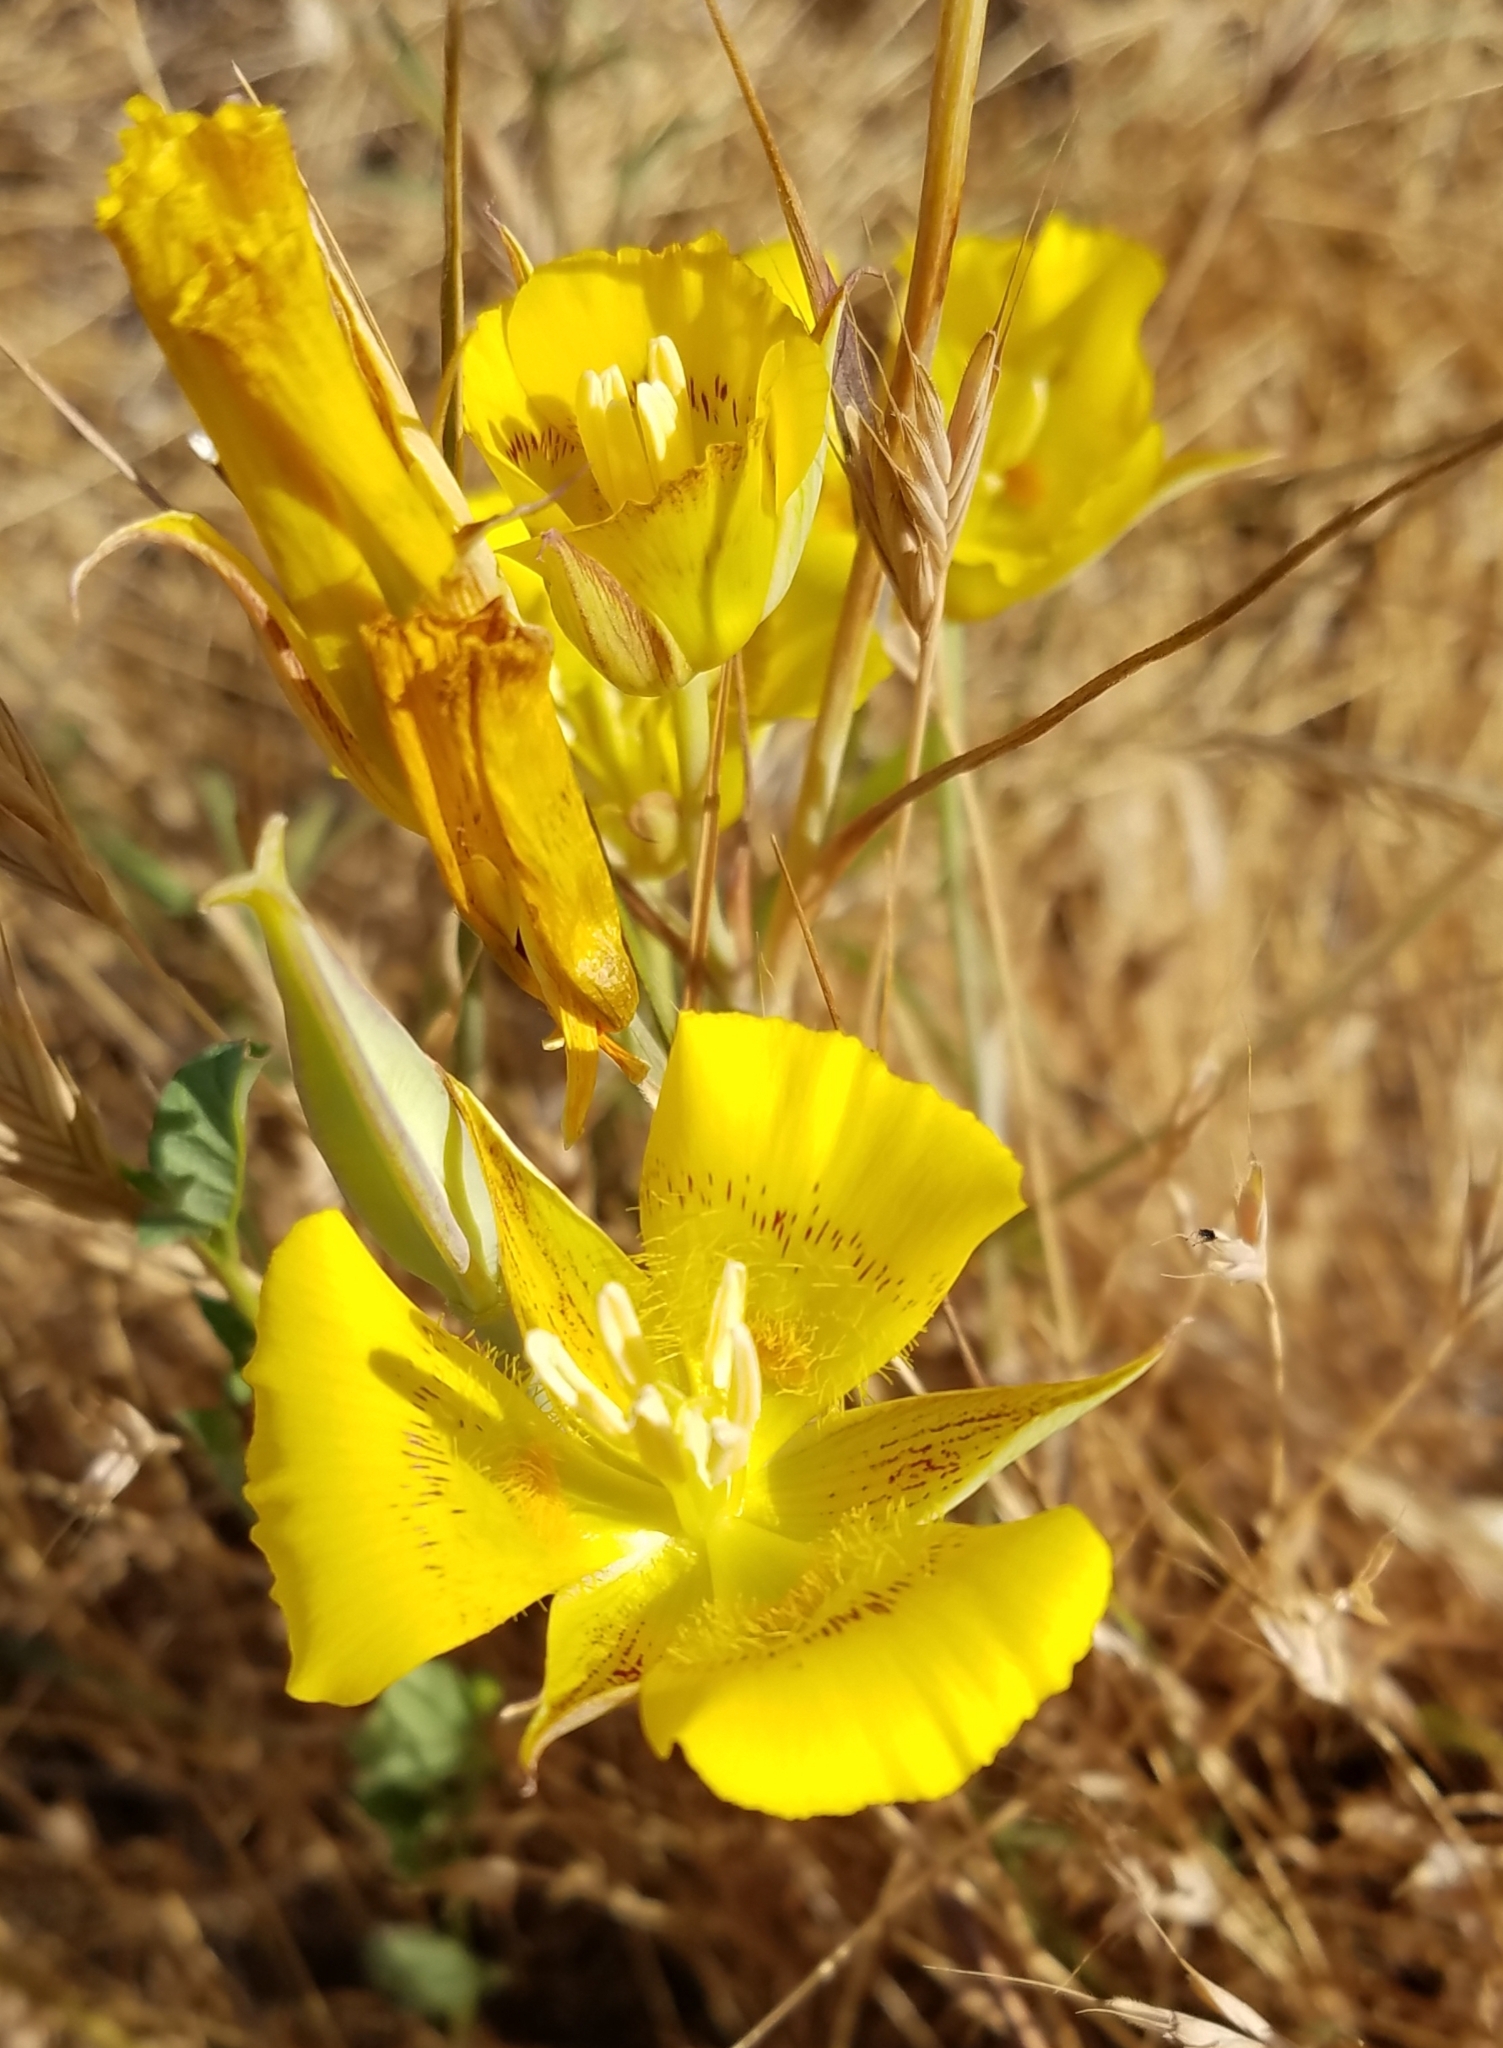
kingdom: Plantae
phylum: Tracheophyta
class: Liliopsida
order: Liliales
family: Liliaceae
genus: Calochortus
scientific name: Calochortus luteus
